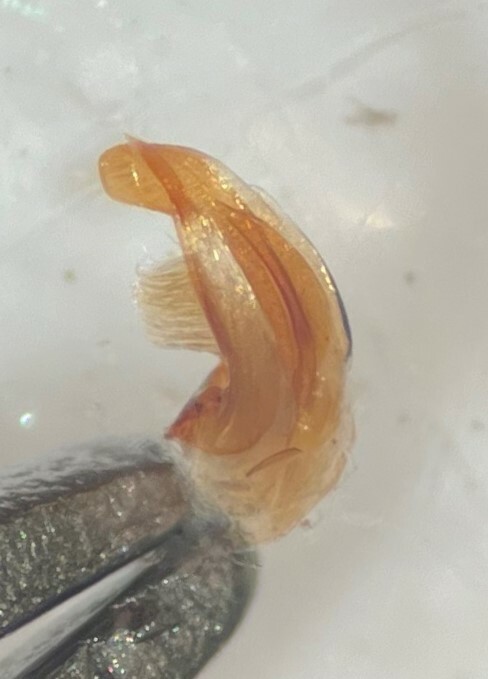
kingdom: Animalia
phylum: Arthropoda
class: Insecta
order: Coleoptera
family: Haliplidae
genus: Haliplus
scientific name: Haliplus deceptus
